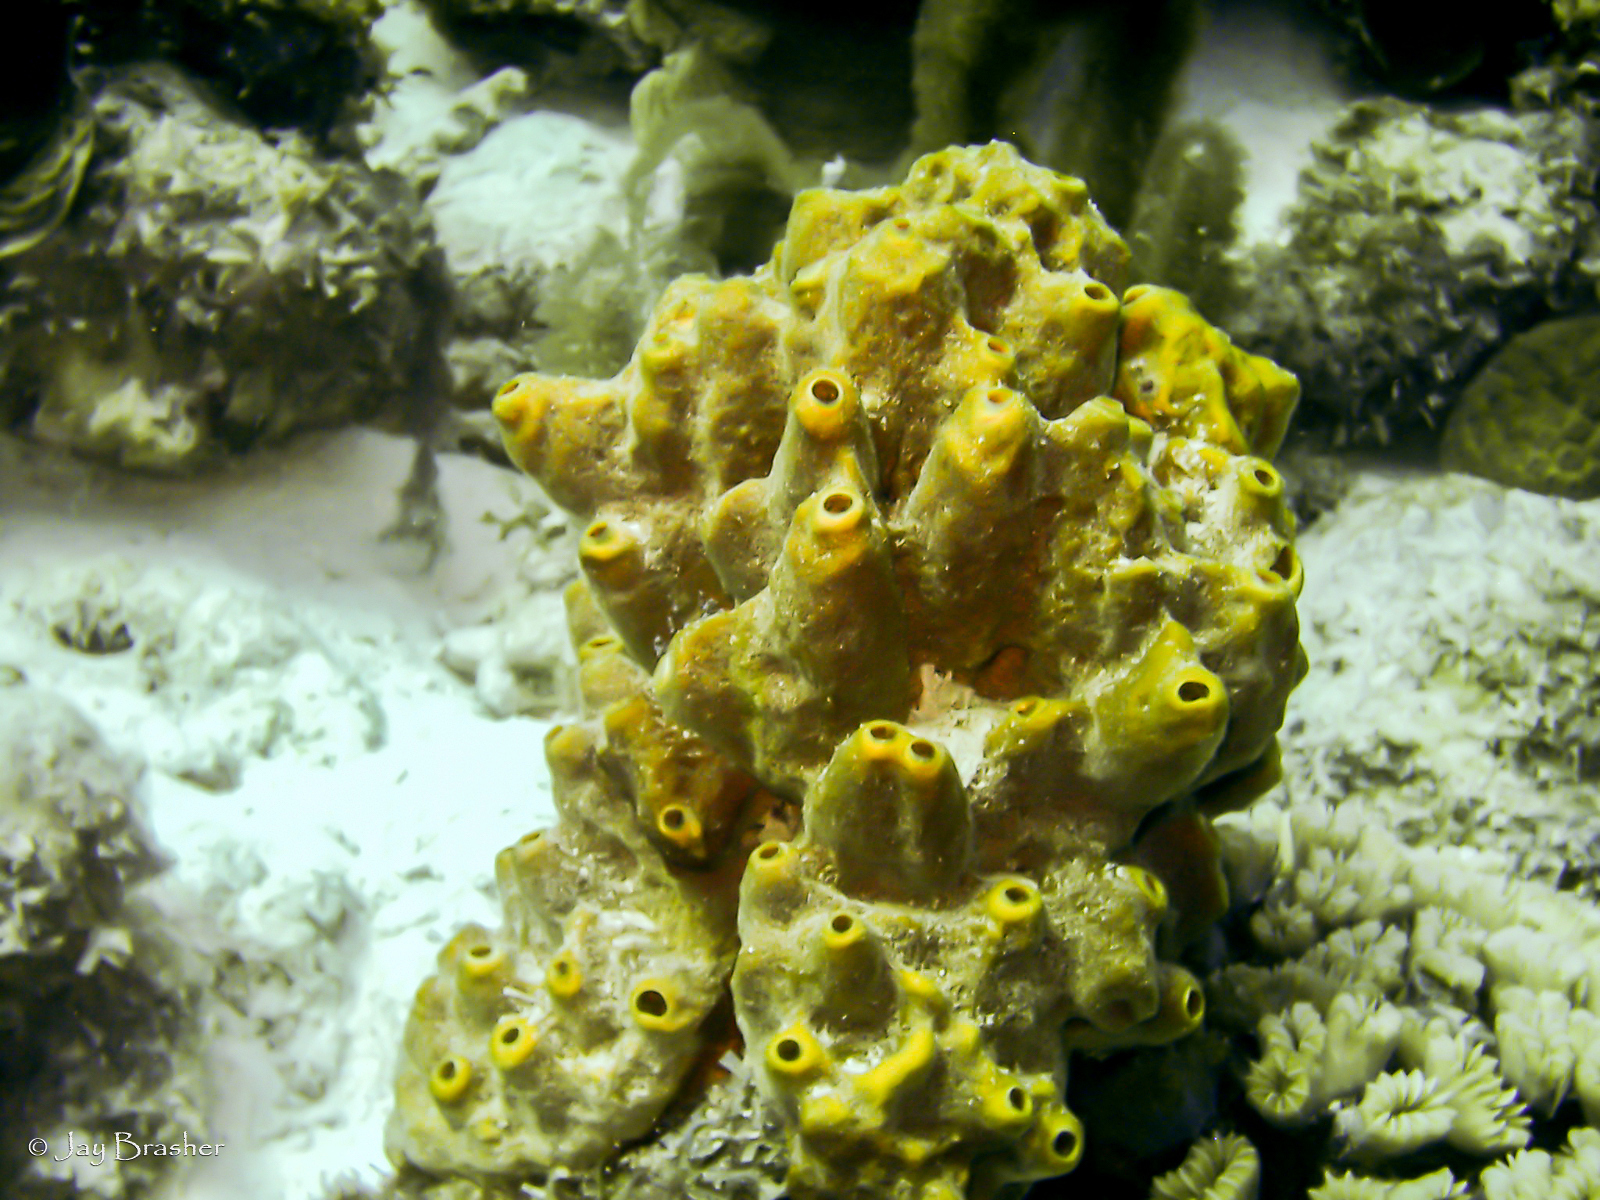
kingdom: Animalia
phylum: Porifera
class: Demospongiae
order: Axinellida
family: Raspailiidae
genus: Ectyoplasia
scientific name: Ectyoplasia ferox
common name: Brown encrusting octopus sponge
